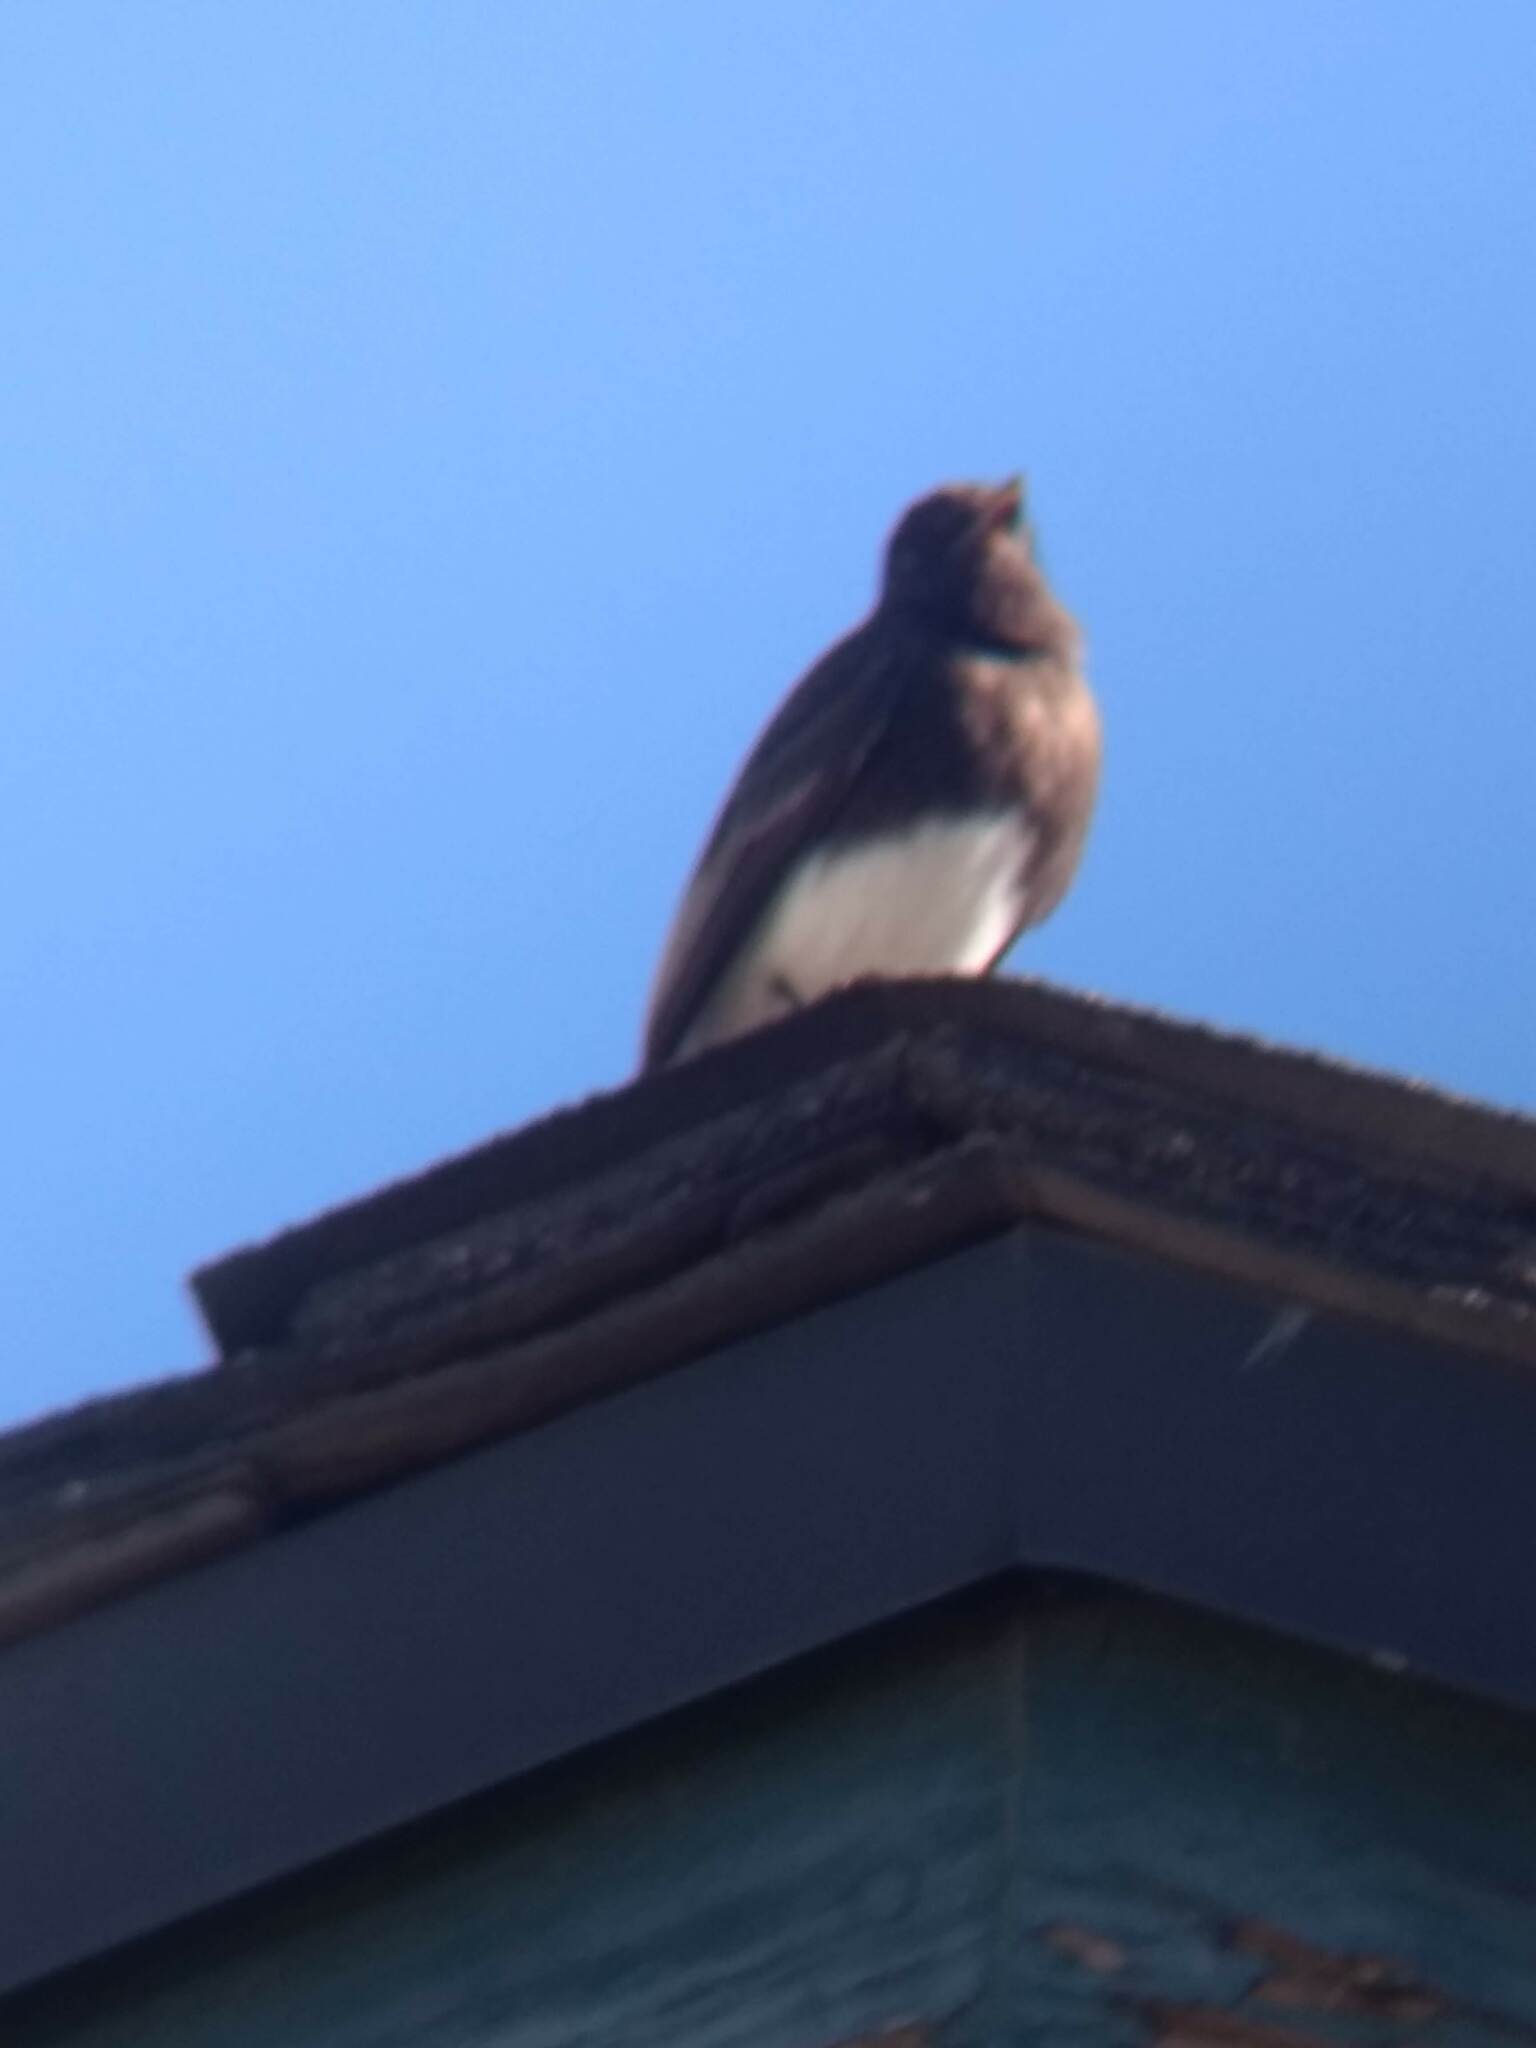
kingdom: Animalia
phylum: Chordata
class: Aves
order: Passeriformes
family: Tyrannidae
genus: Sayornis
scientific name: Sayornis nigricans
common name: Black phoebe
